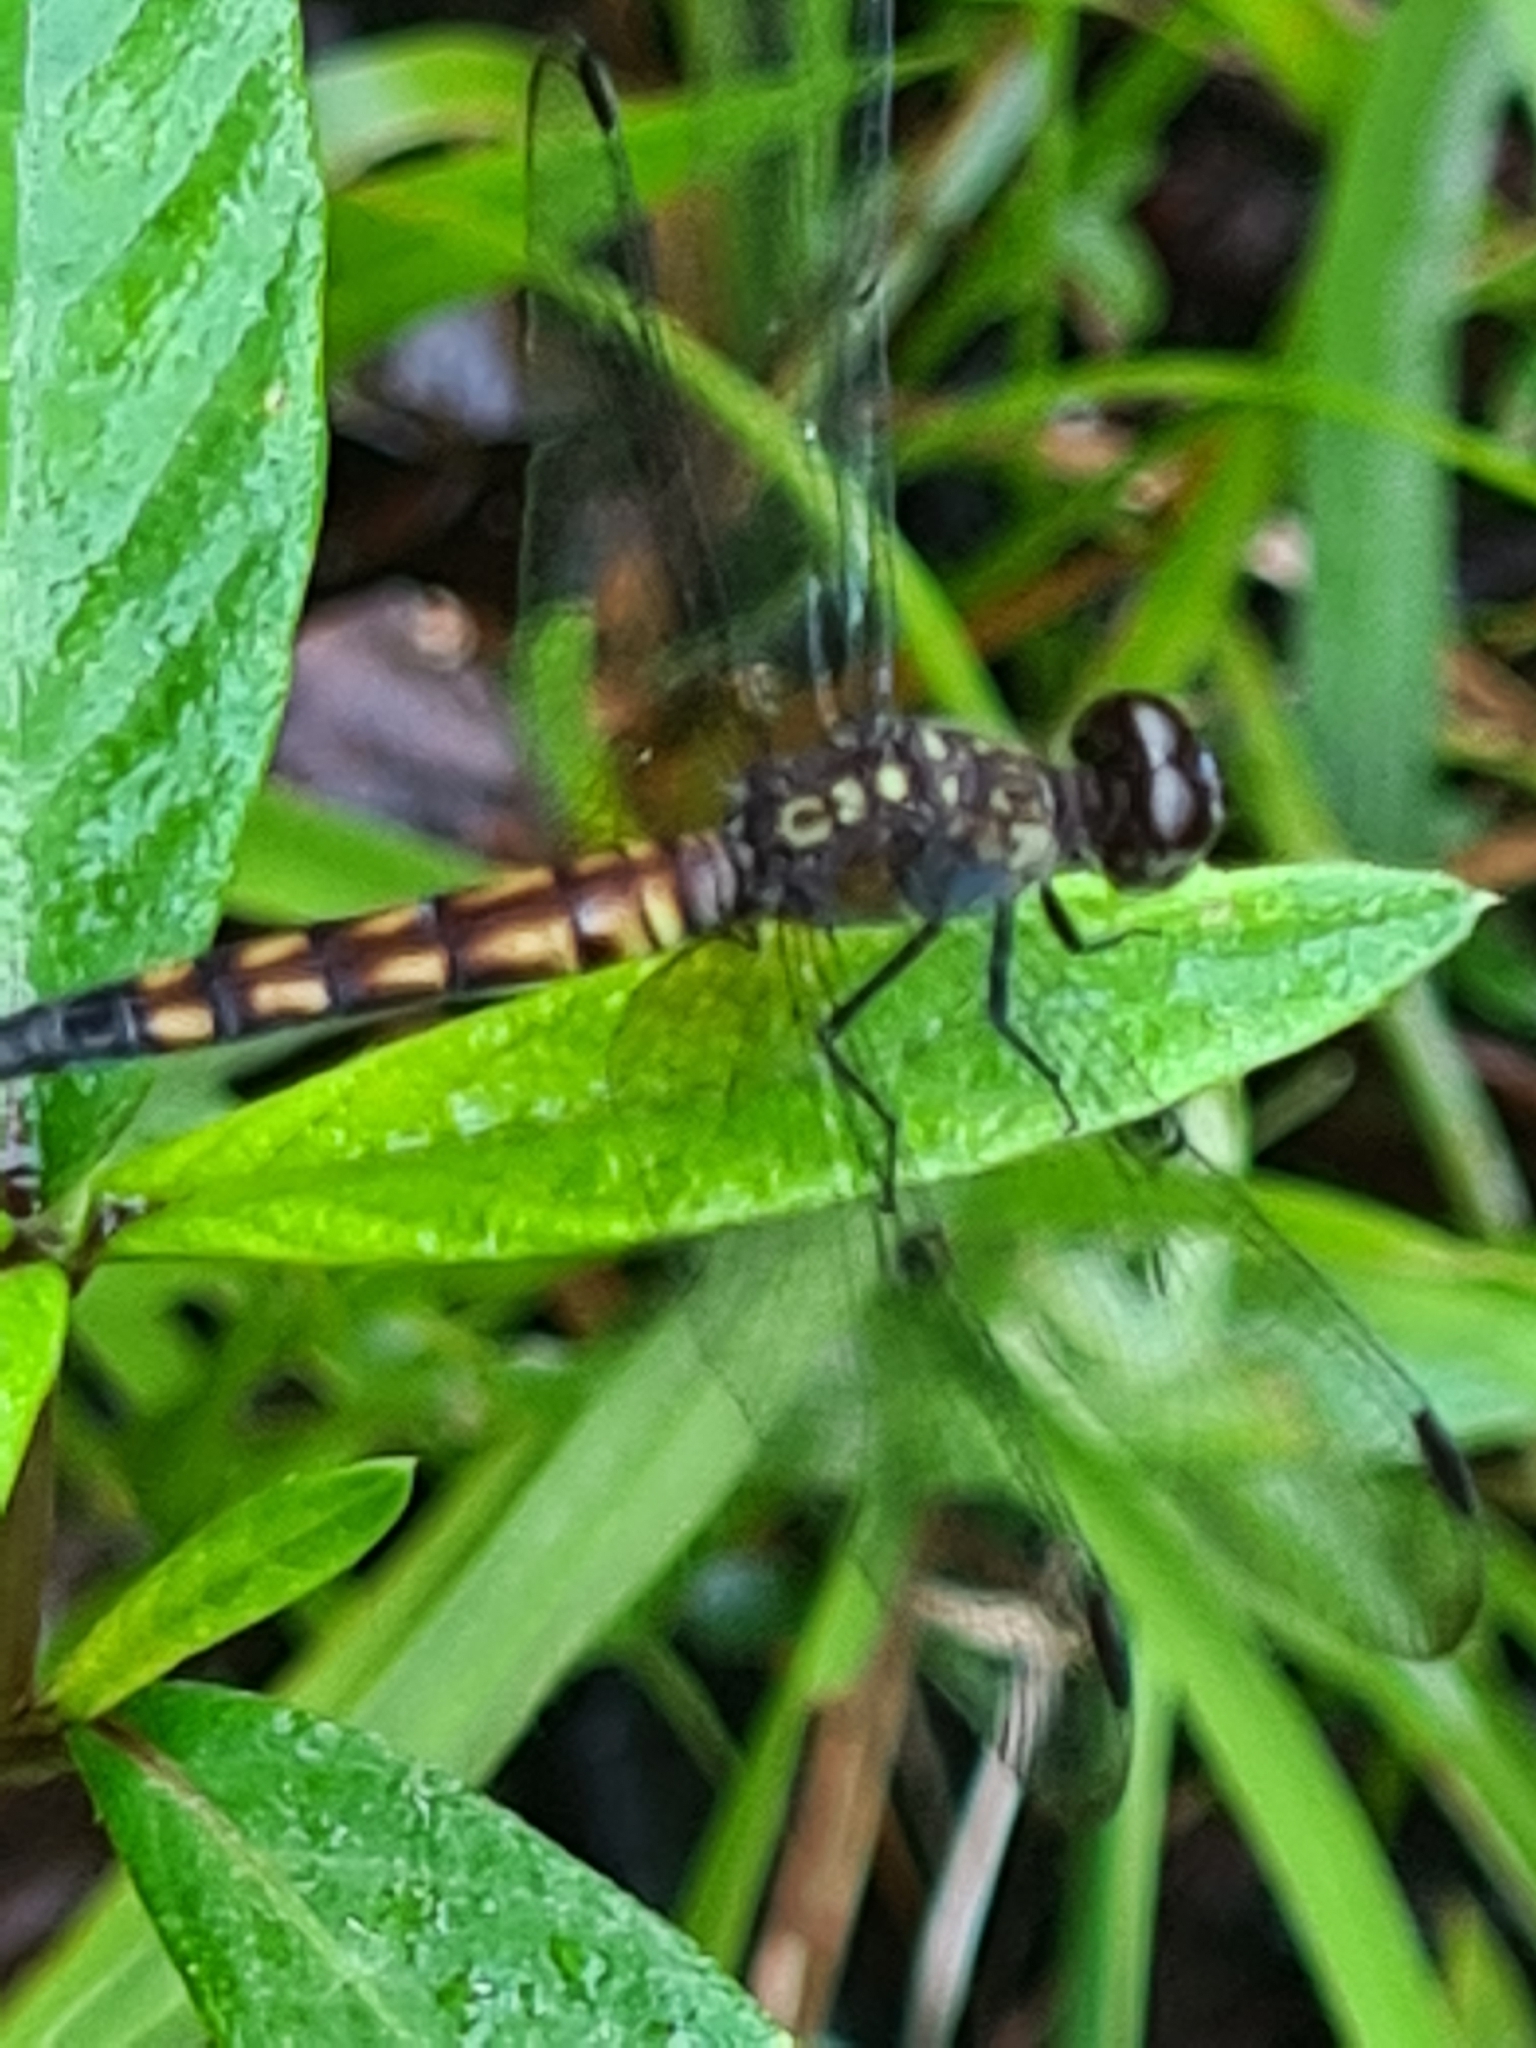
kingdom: Animalia
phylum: Arthropoda
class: Insecta
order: Odonata
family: Libellulidae
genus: Erythrodiplax
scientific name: Erythrodiplax unimaculata
